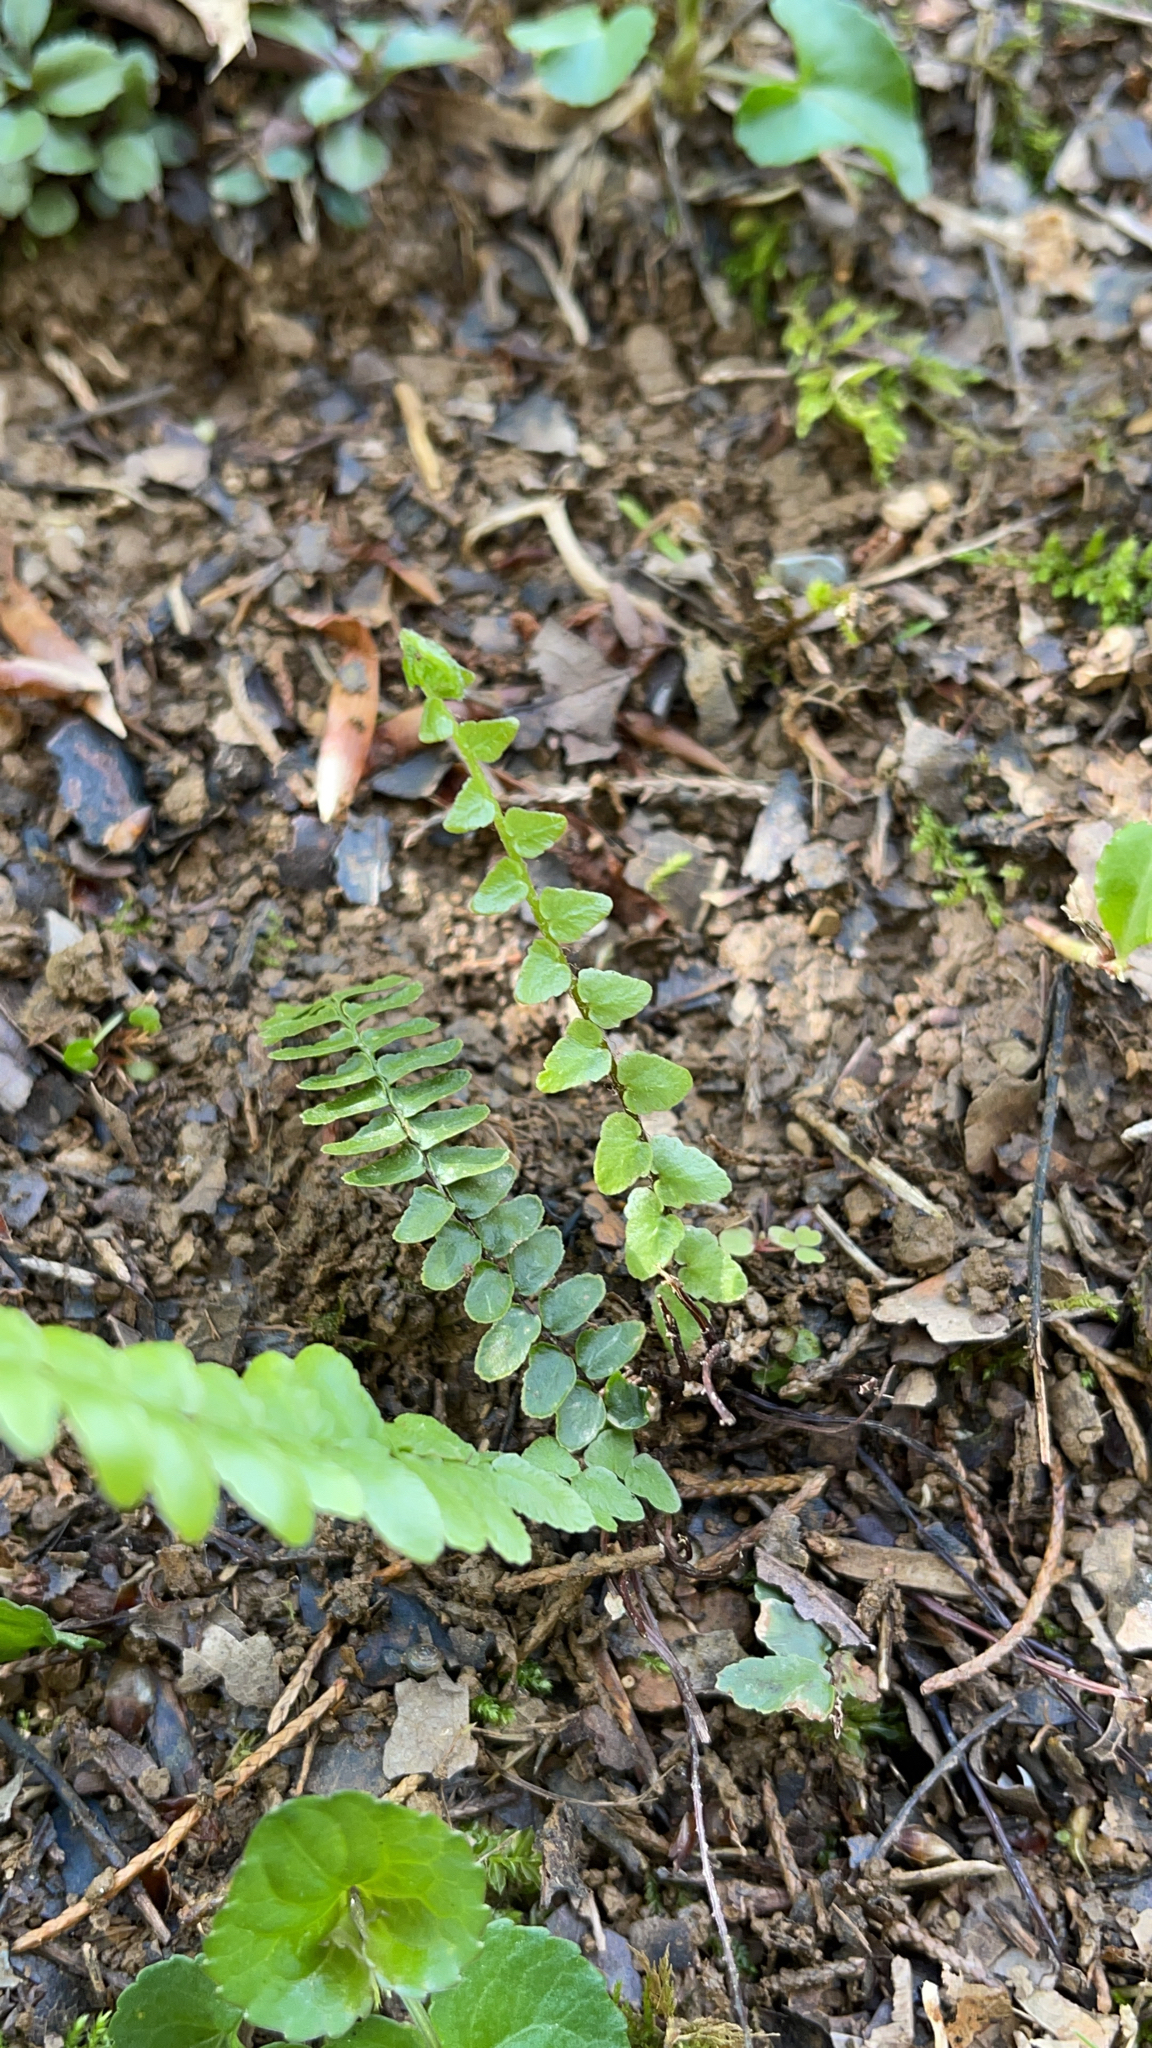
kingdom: Plantae
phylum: Tracheophyta
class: Polypodiopsida
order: Polypodiales
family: Aspleniaceae
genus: Asplenium
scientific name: Asplenium platyneuron
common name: Ebony spleenwort
